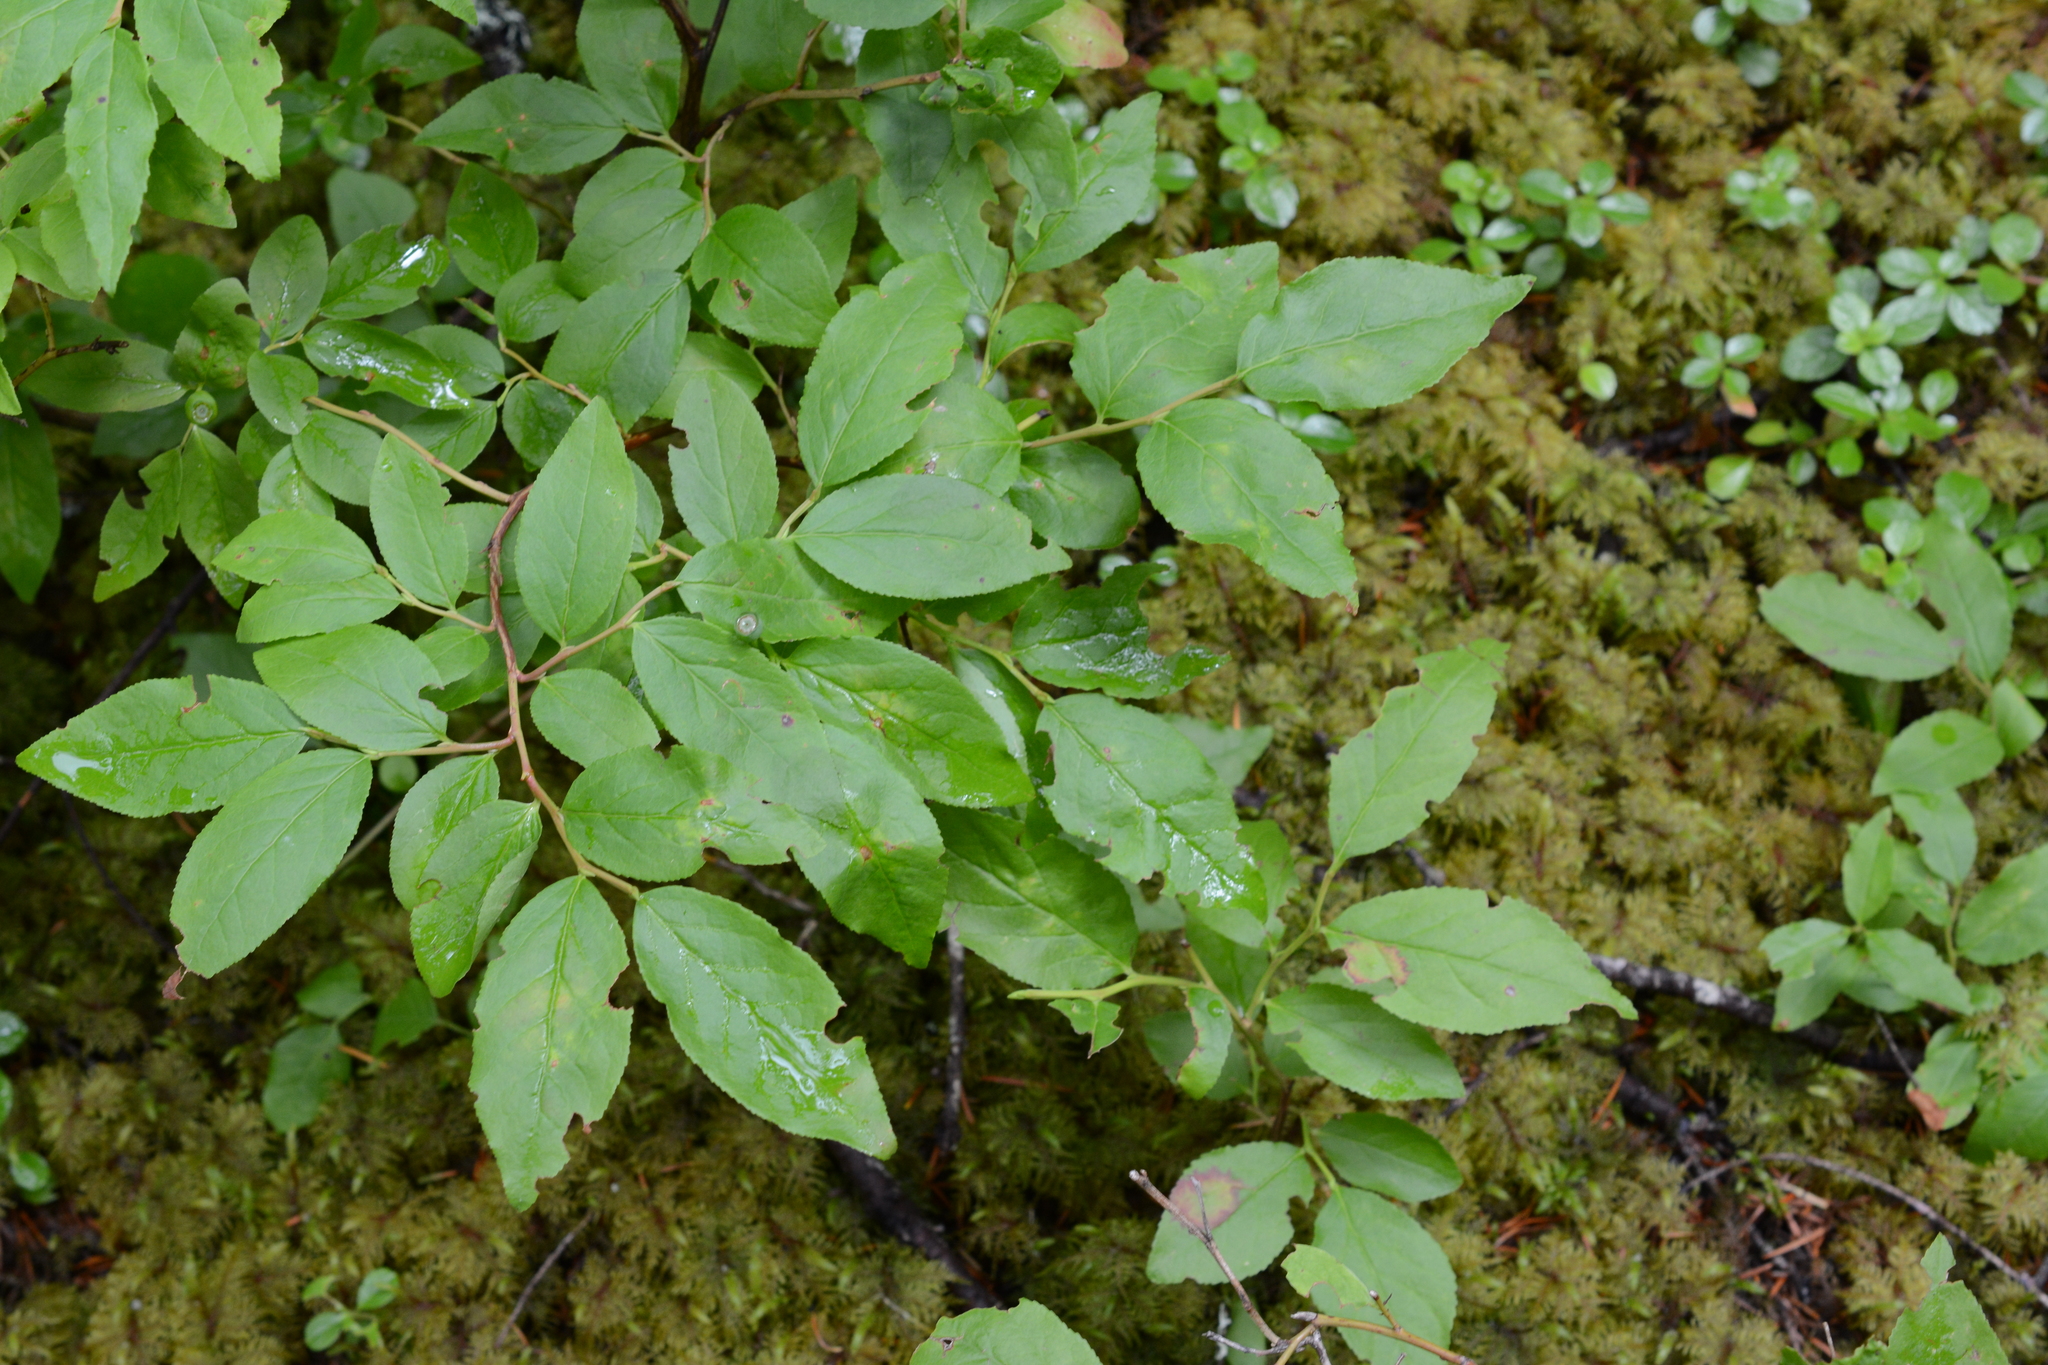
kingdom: Plantae
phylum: Tracheophyta
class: Magnoliopsida
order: Ericales
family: Ericaceae
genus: Vaccinium
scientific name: Vaccinium membranaceum
